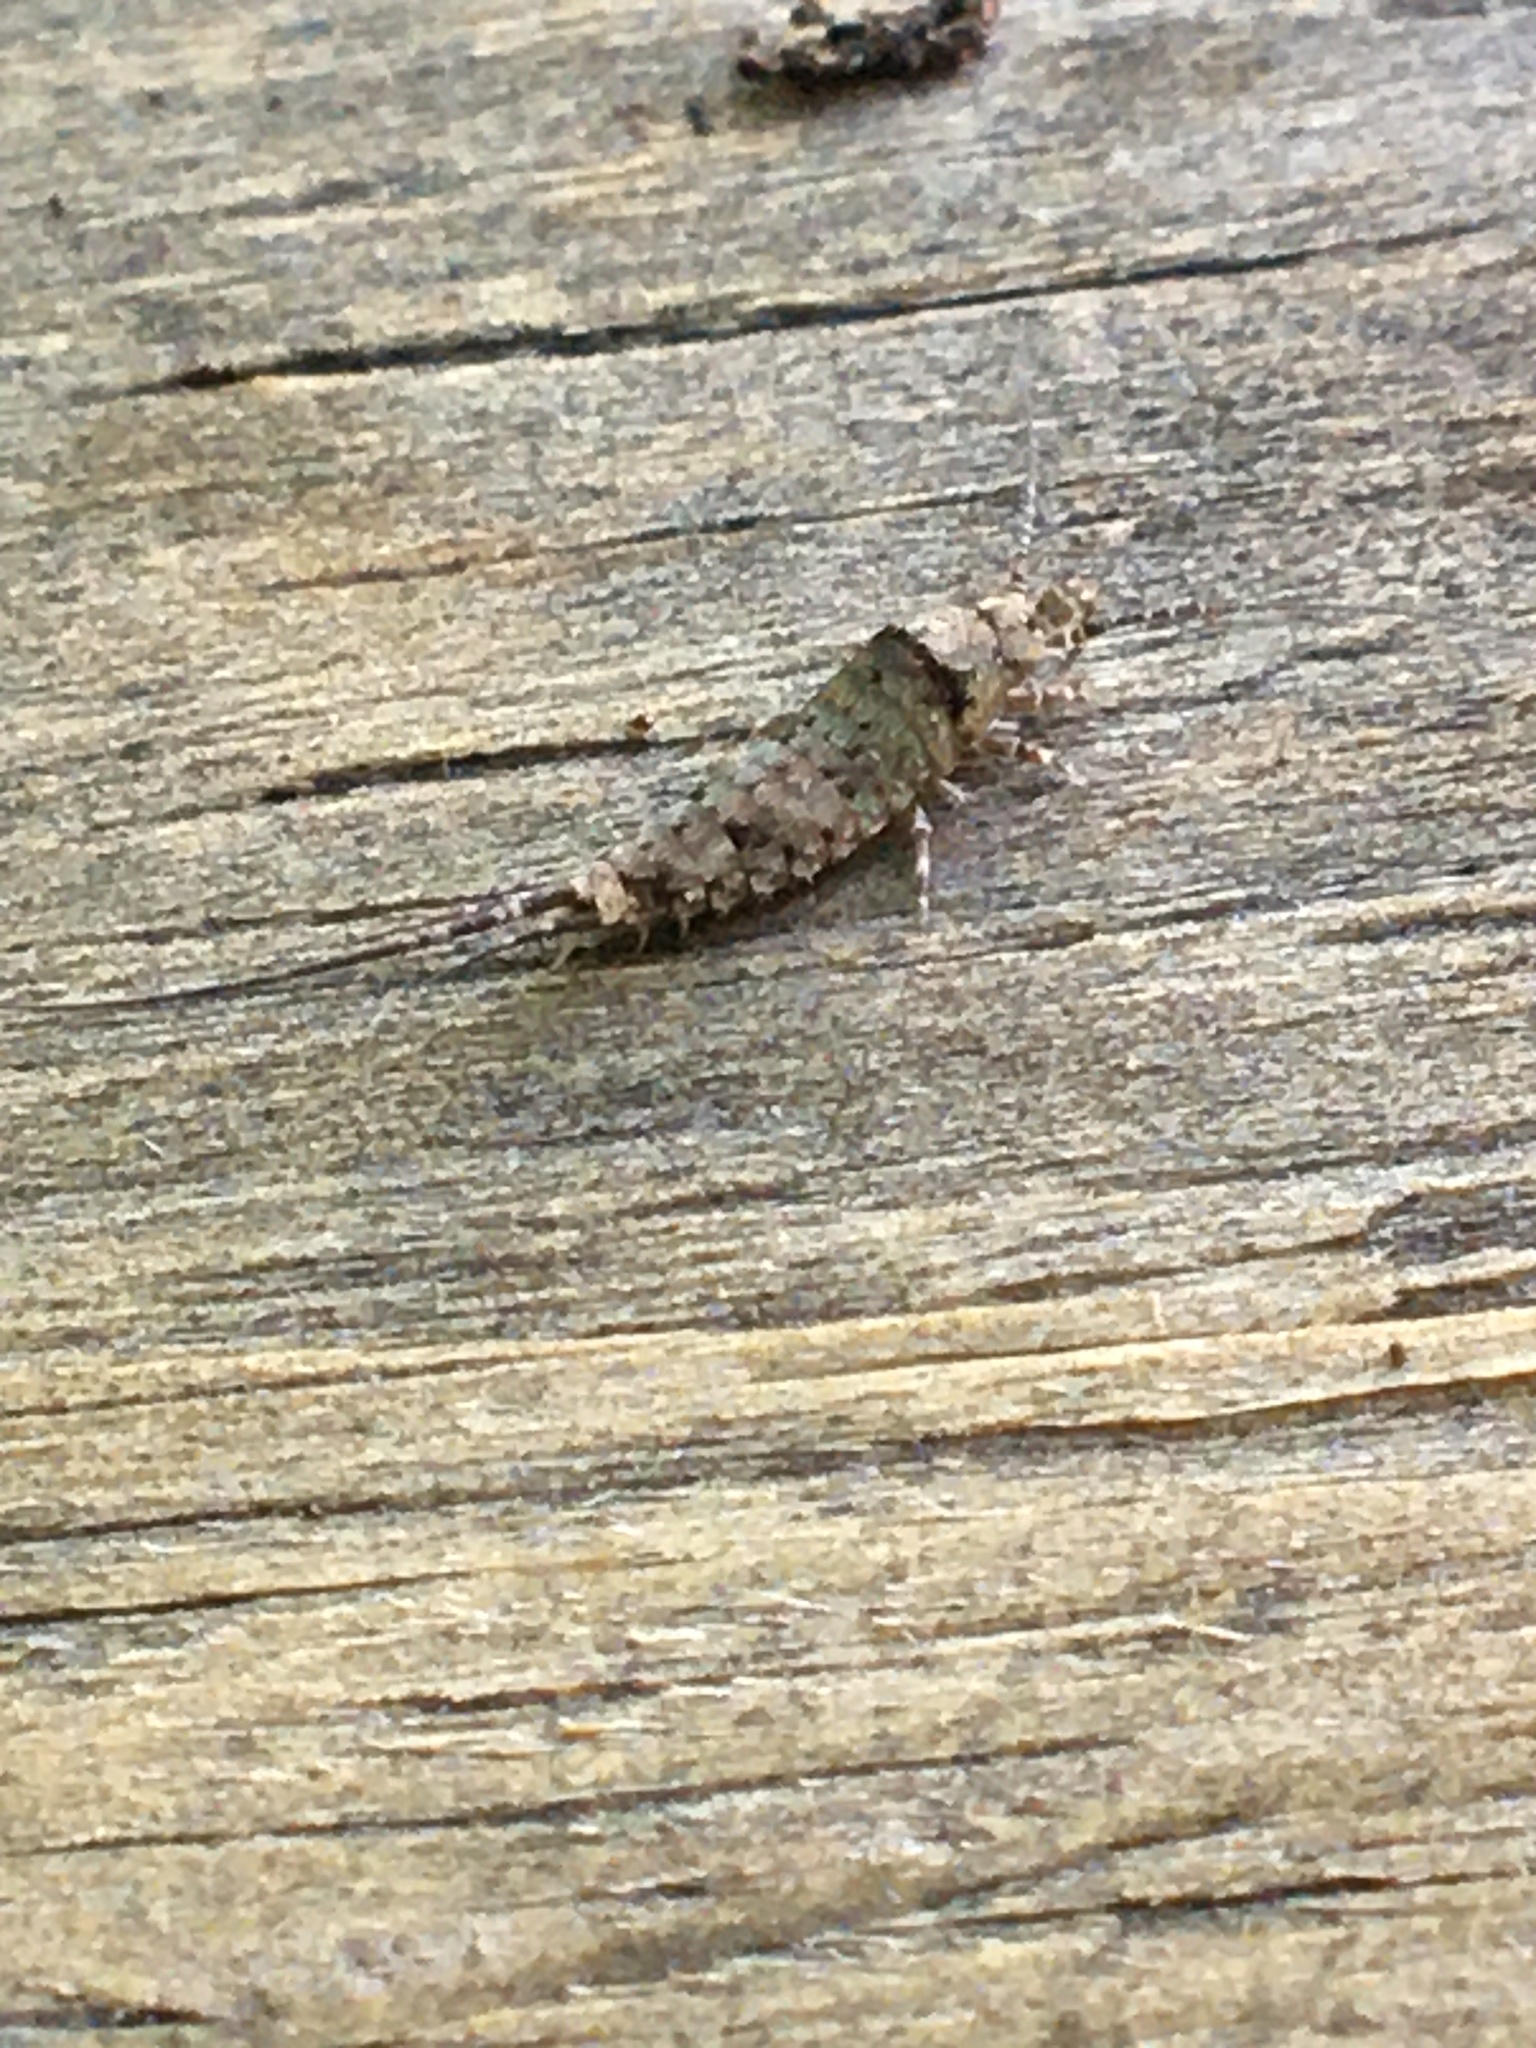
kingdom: Animalia
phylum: Arthropoda
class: Insecta
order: Archaeognatha
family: Machilidae
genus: Trigoniophthalmus
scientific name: Trigoniophthalmus alternatus
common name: Jumping bristletail
